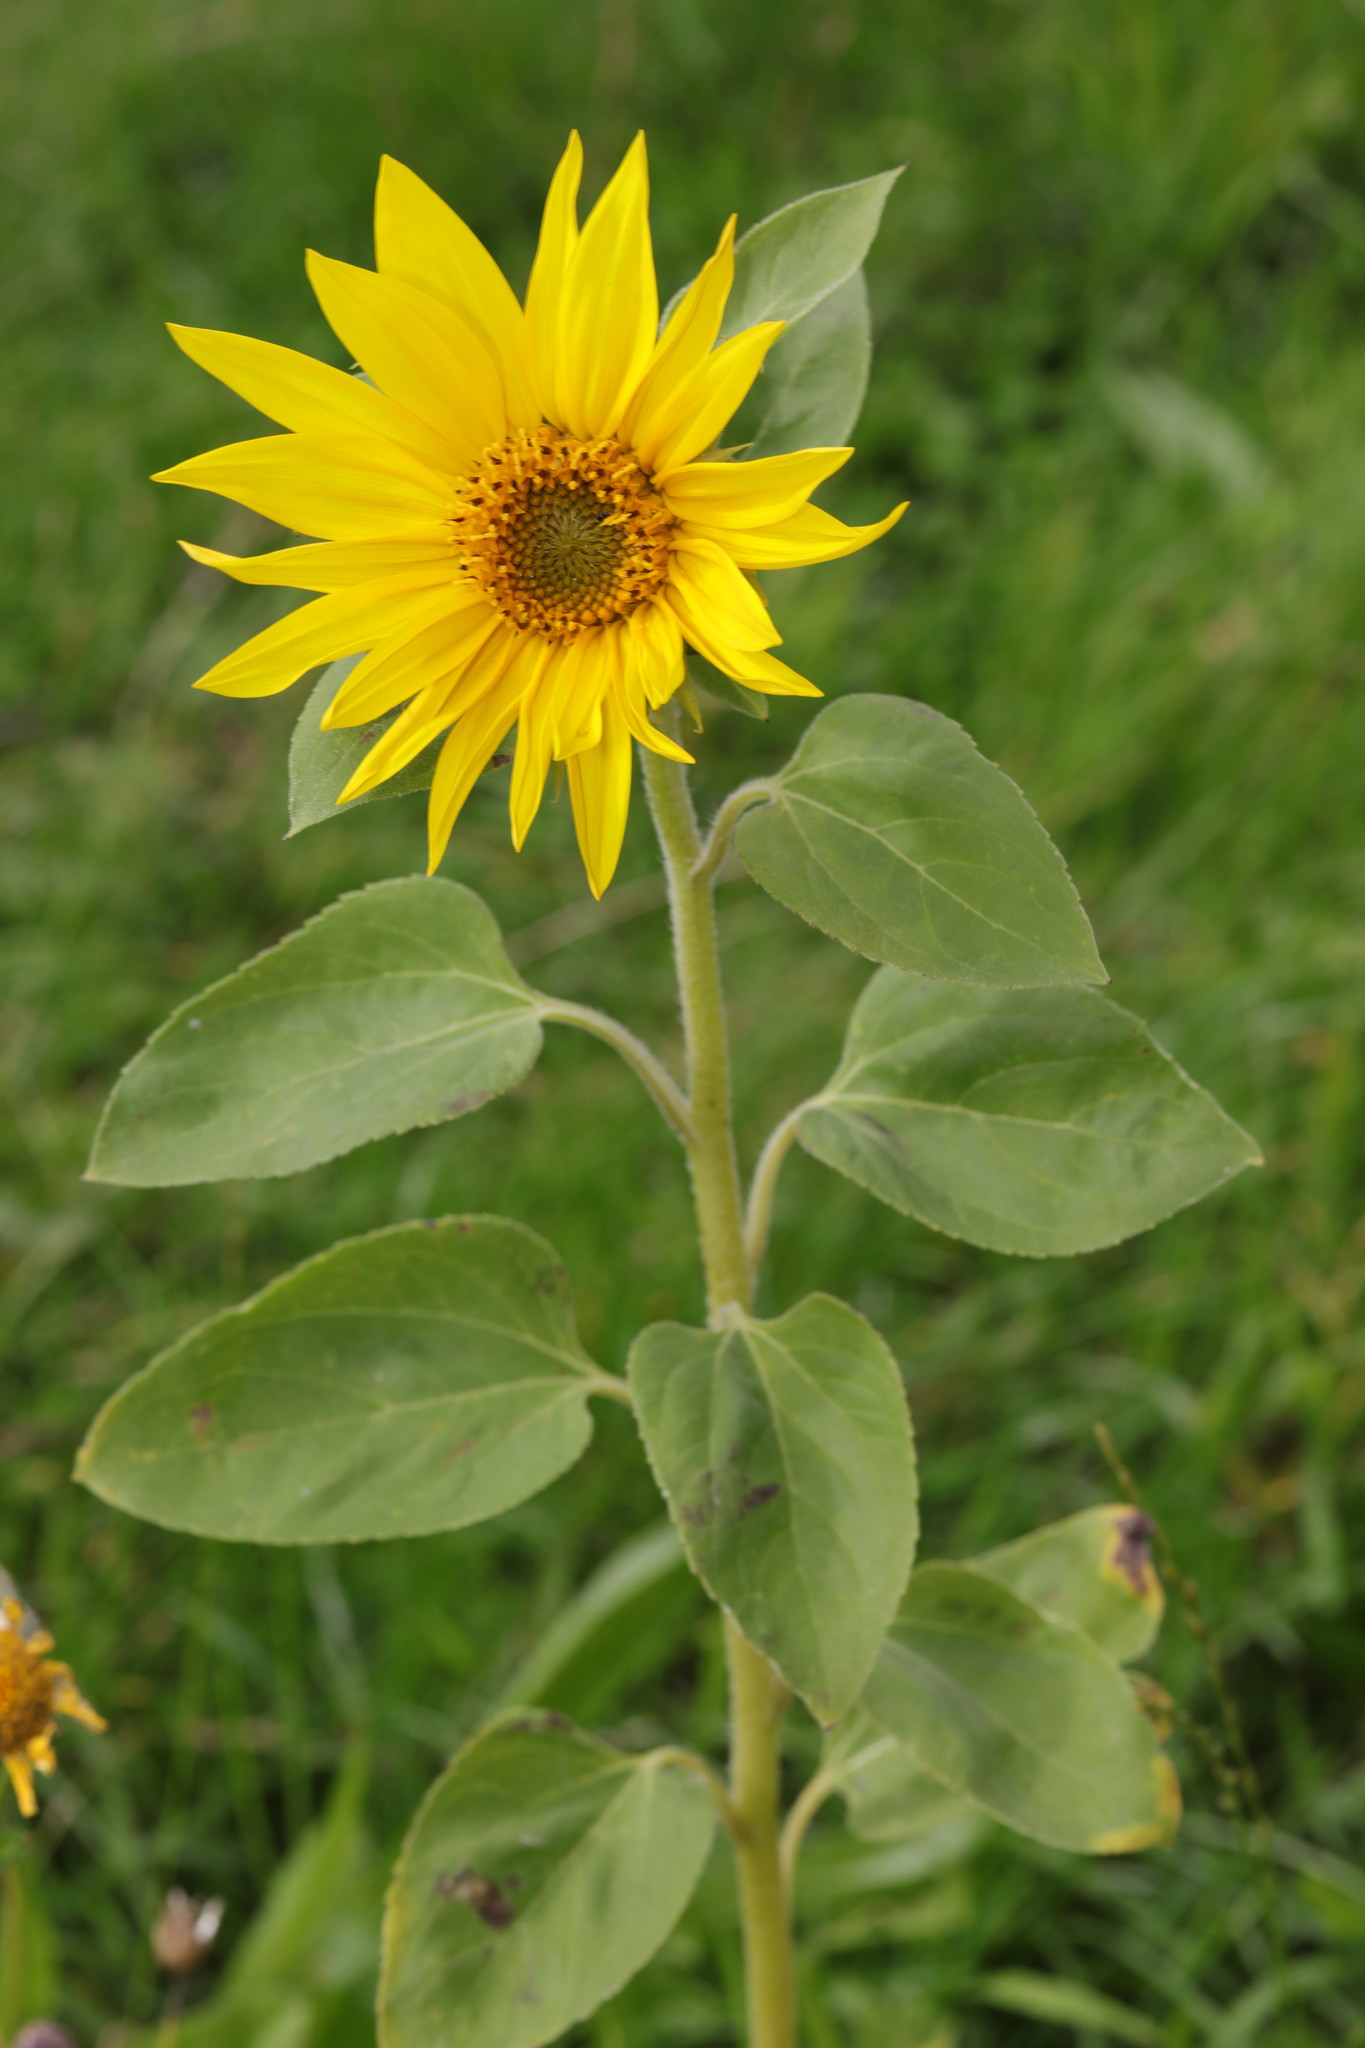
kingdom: Plantae
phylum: Tracheophyta
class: Magnoliopsida
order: Asterales
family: Asteraceae
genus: Helianthus
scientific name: Helianthus annuus
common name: Sunflower
